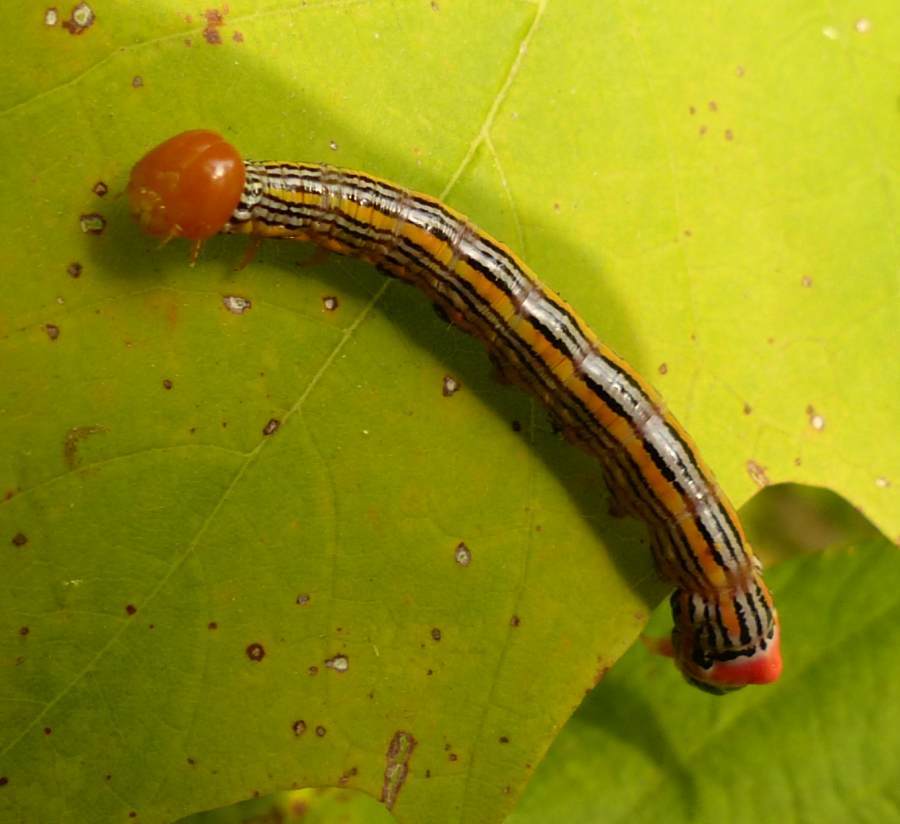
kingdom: Animalia
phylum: Arthropoda
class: Insecta
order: Lepidoptera
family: Notodontidae
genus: Symmerista
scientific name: Symmerista leucitys
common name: Orange-humped mapleworm
